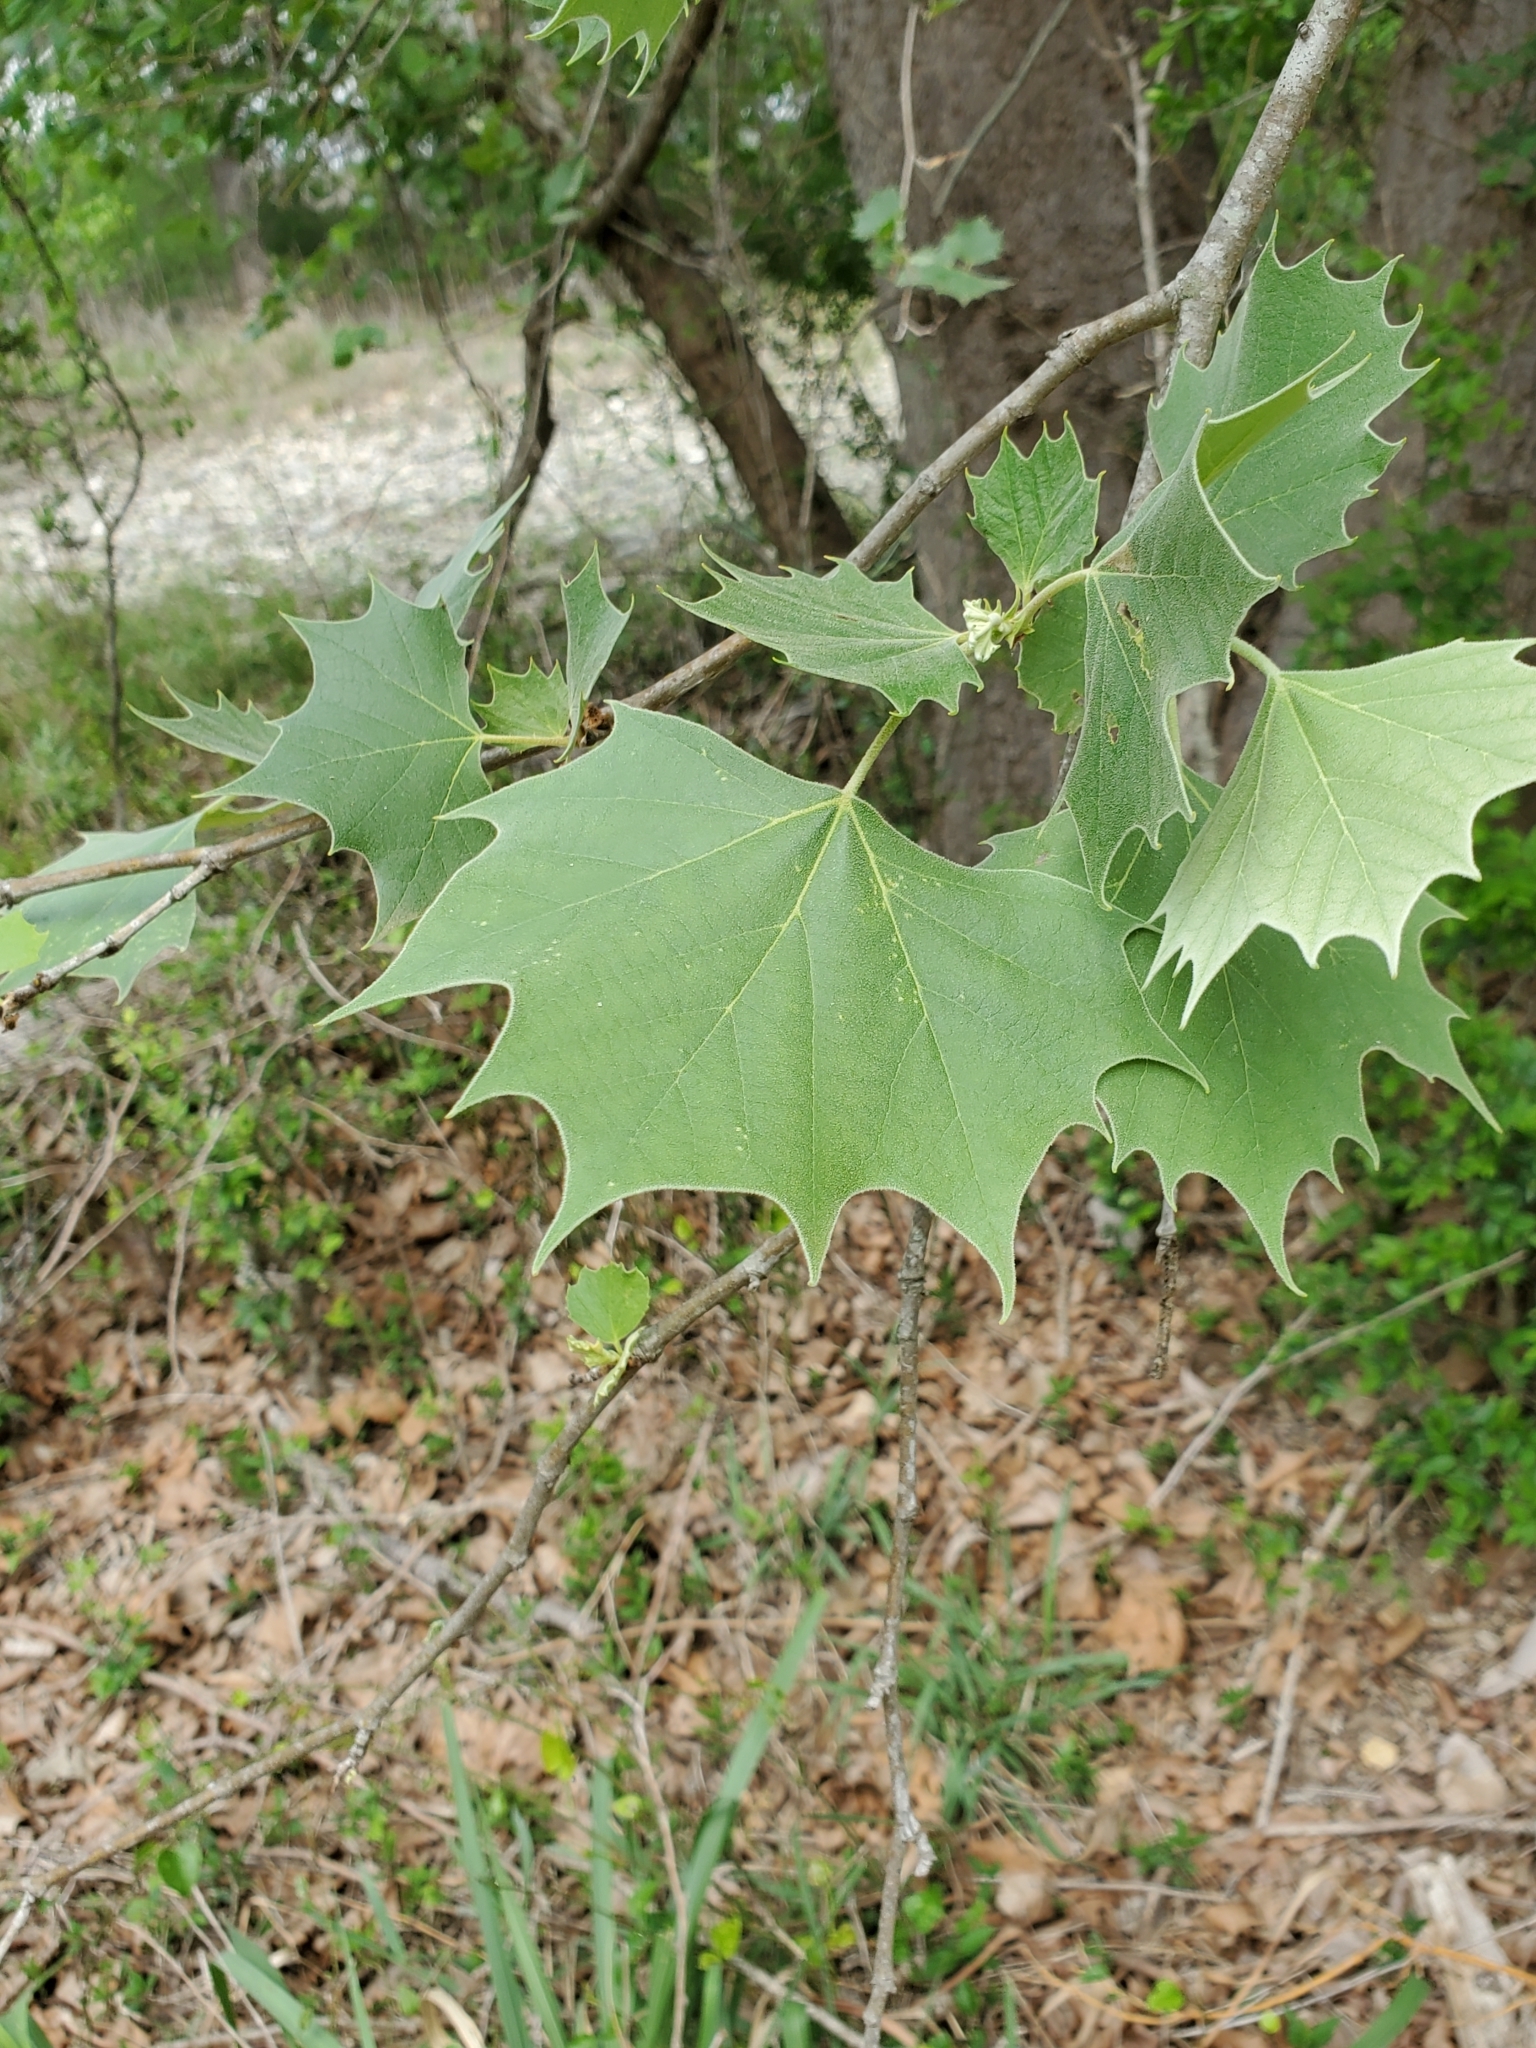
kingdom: Plantae
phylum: Tracheophyta
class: Magnoliopsida
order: Proteales
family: Platanaceae
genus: Platanus
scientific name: Platanus occidentalis
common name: American sycamore
